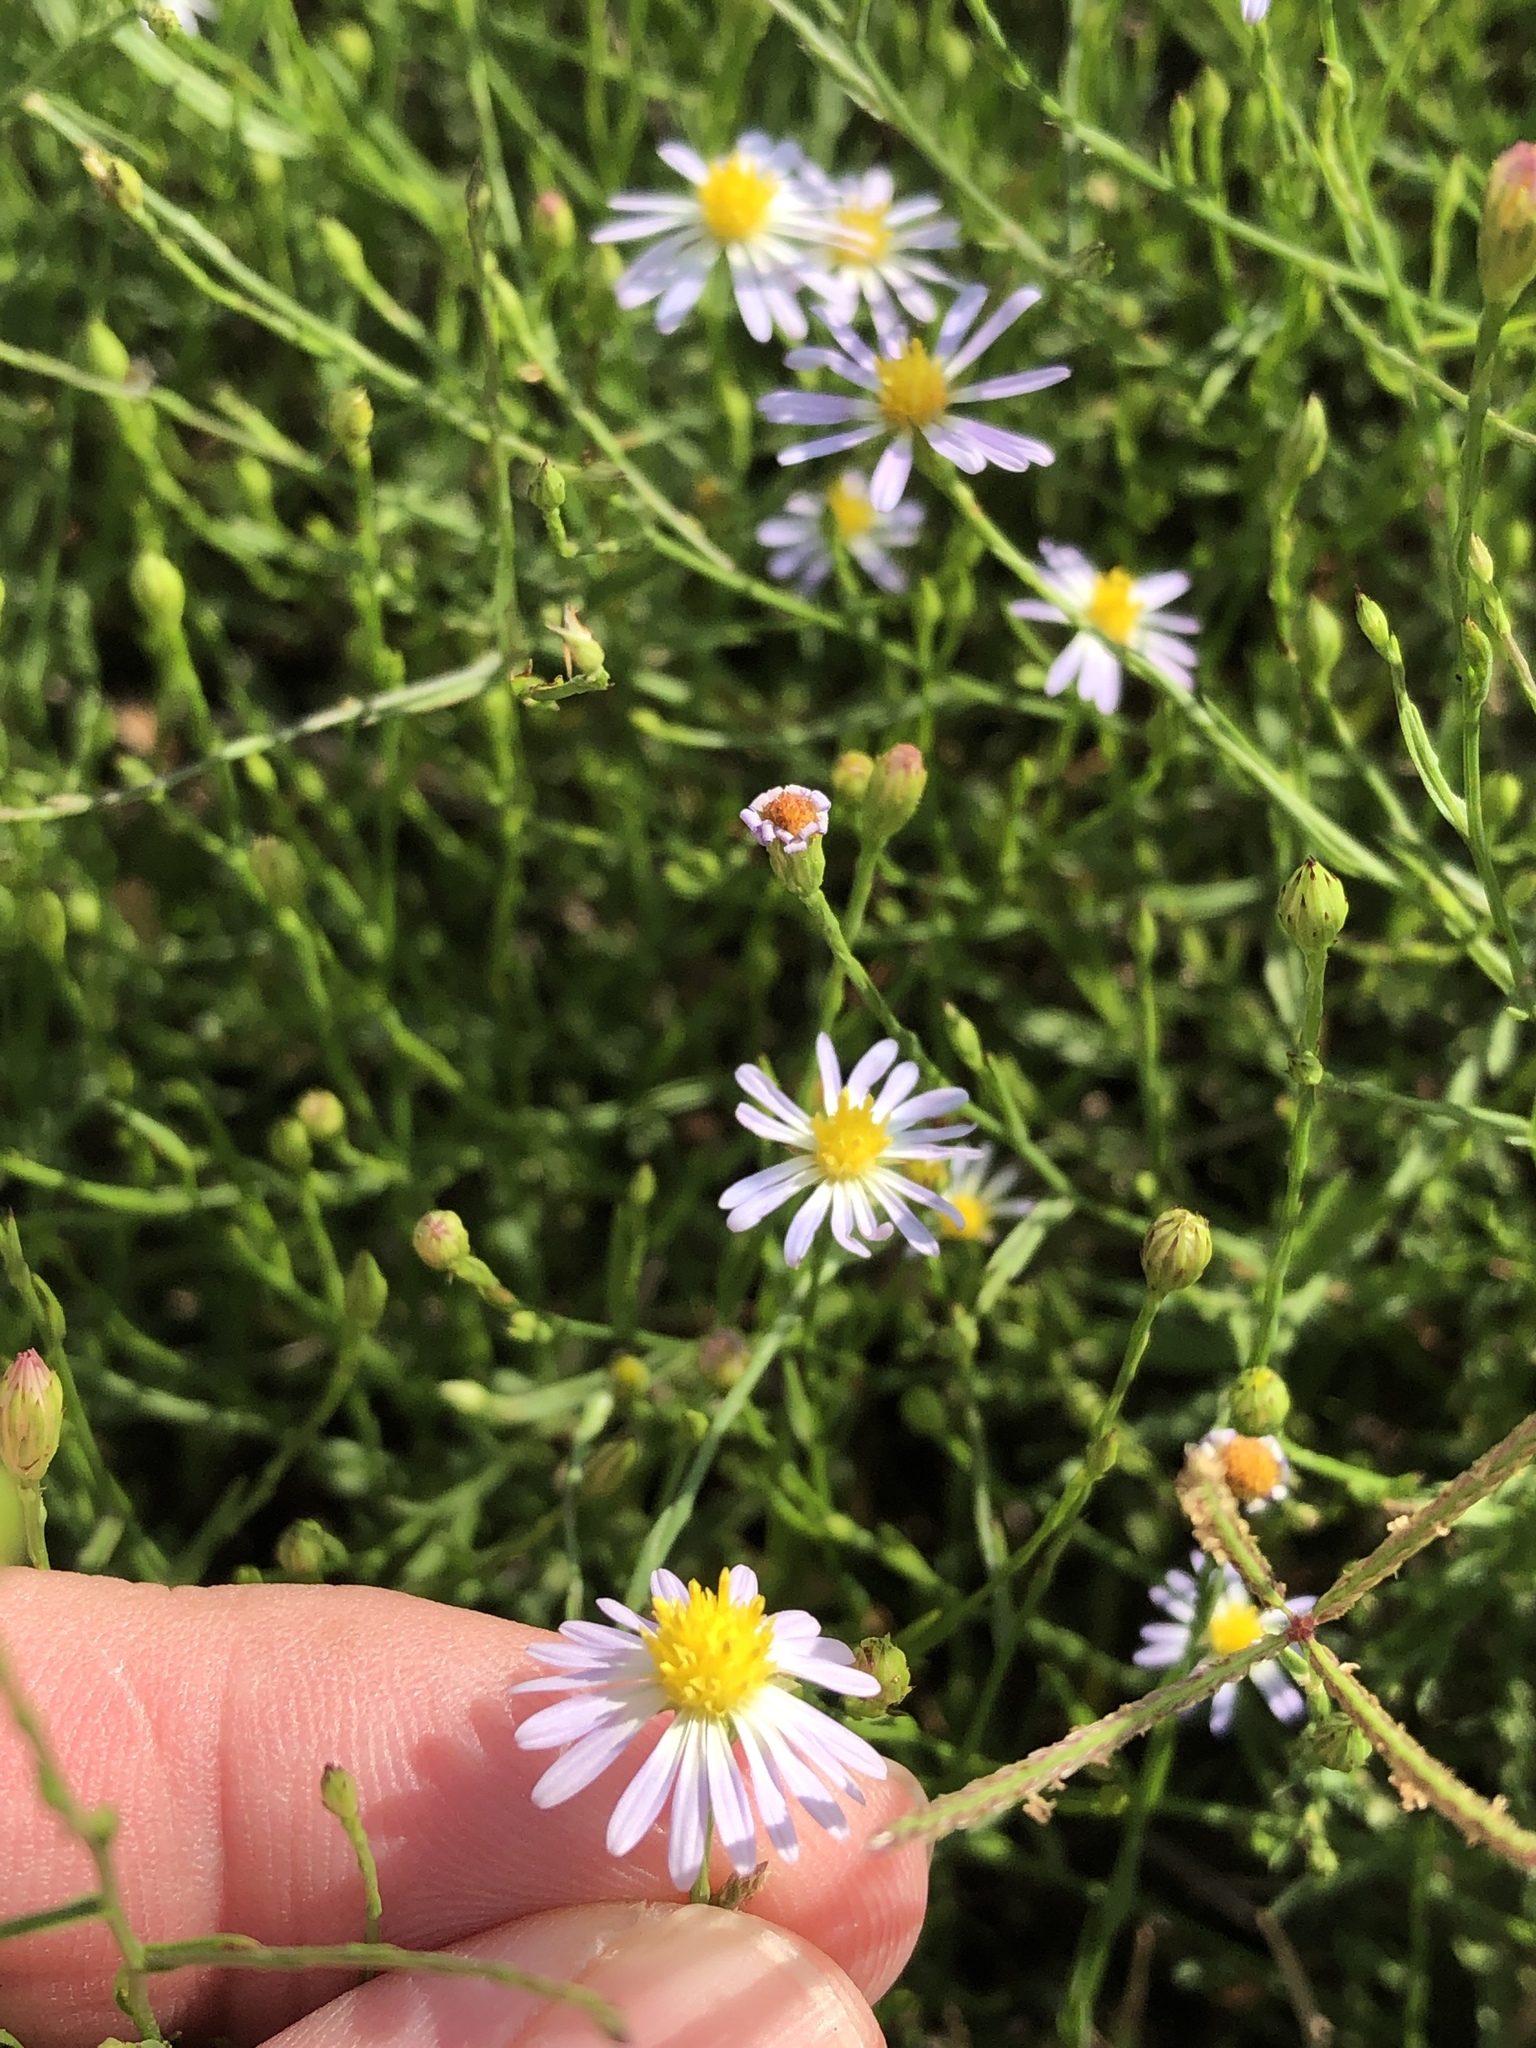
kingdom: Plantae
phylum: Tracheophyta
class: Magnoliopsida
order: Asterales
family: Asteraceae
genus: Symphyotrichum
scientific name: Symphyotrichum divaricatum
